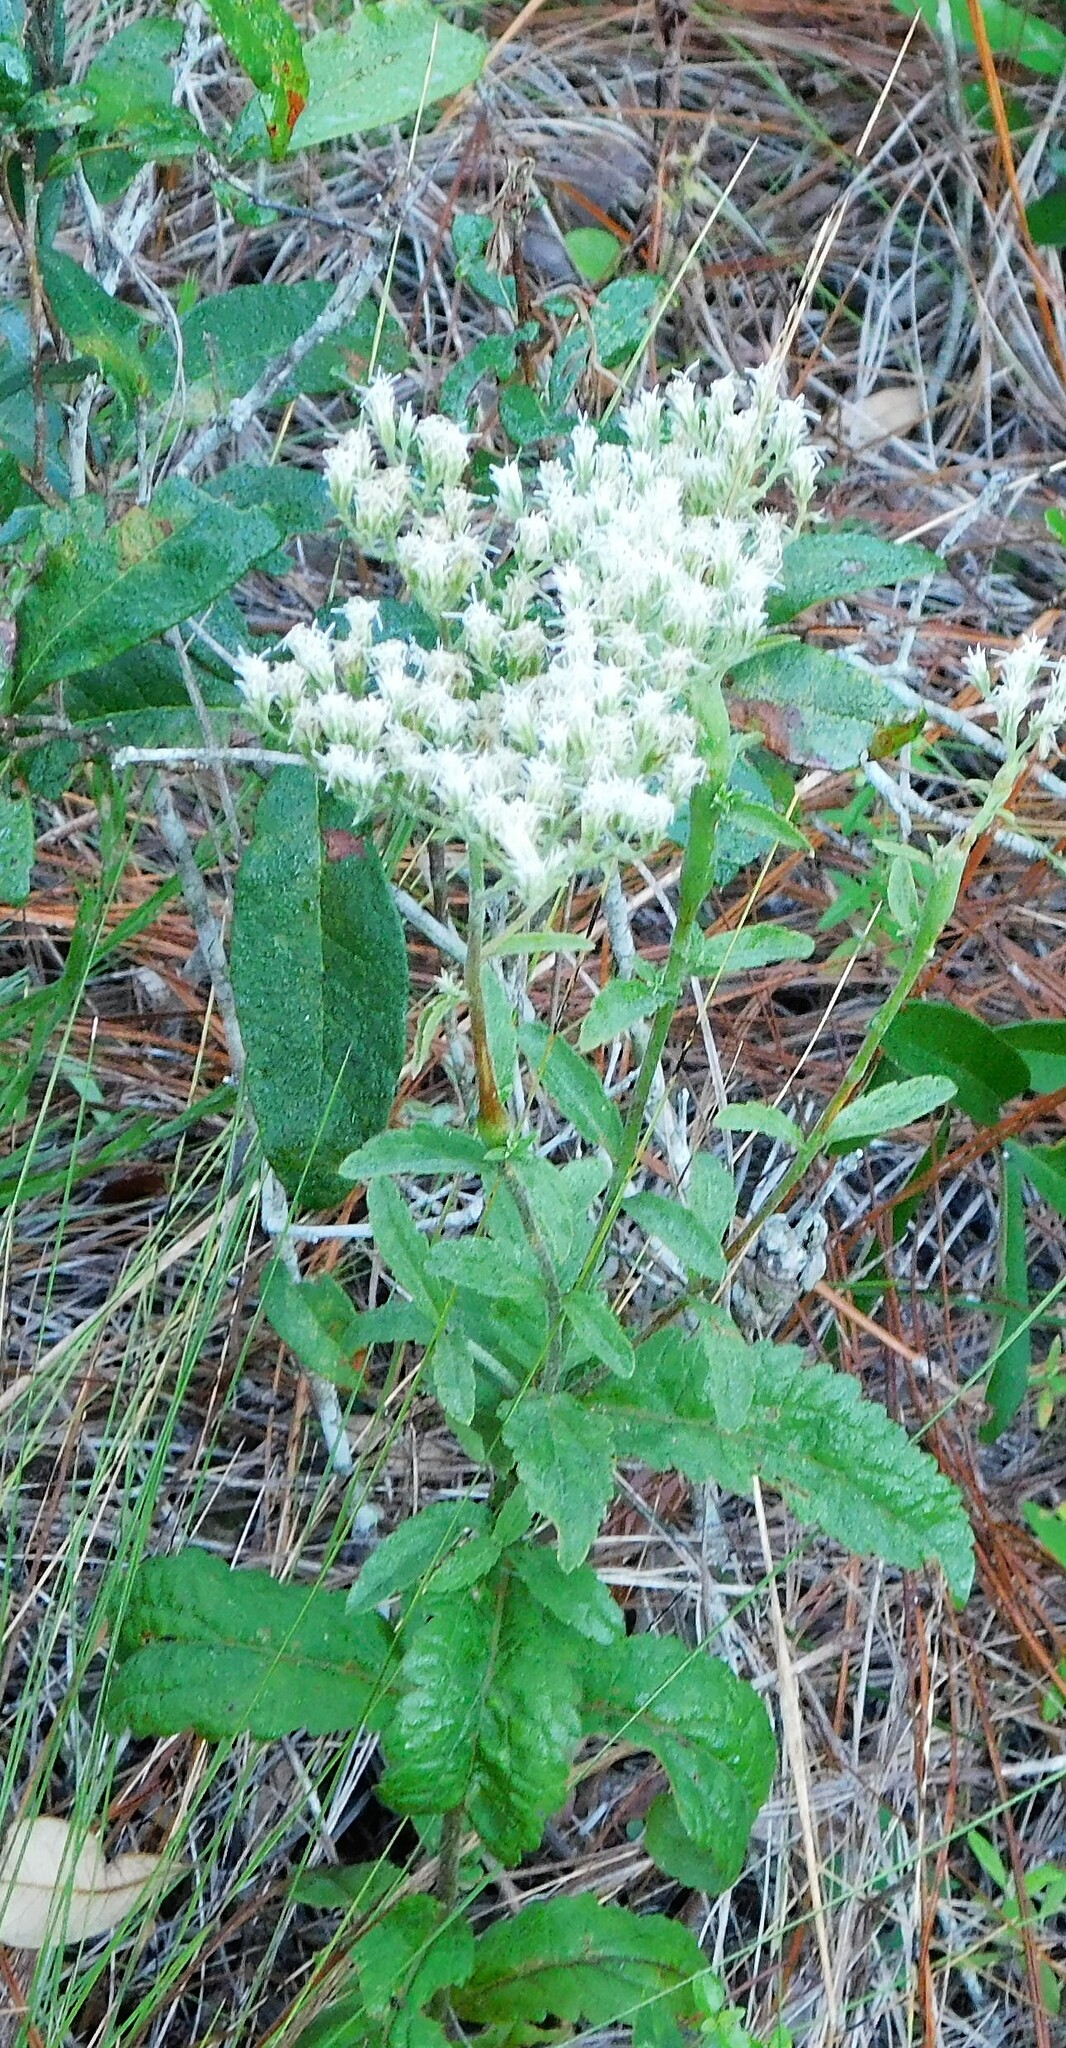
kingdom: Plantae
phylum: Tracheophyta
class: Magnoliopsida
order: Asterales
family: Asteraceae
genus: Eupatorium
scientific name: Eupatorium album
